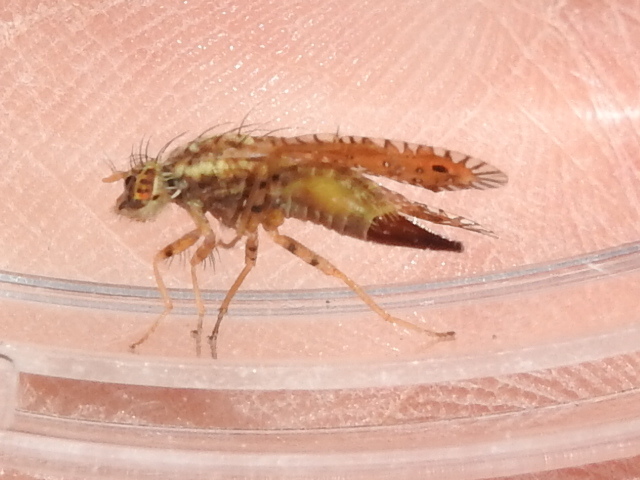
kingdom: Animalia
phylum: Arthropoda
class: Insecta
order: Diptera
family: Tephritidae
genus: Paracantha
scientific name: Paracantha culta
